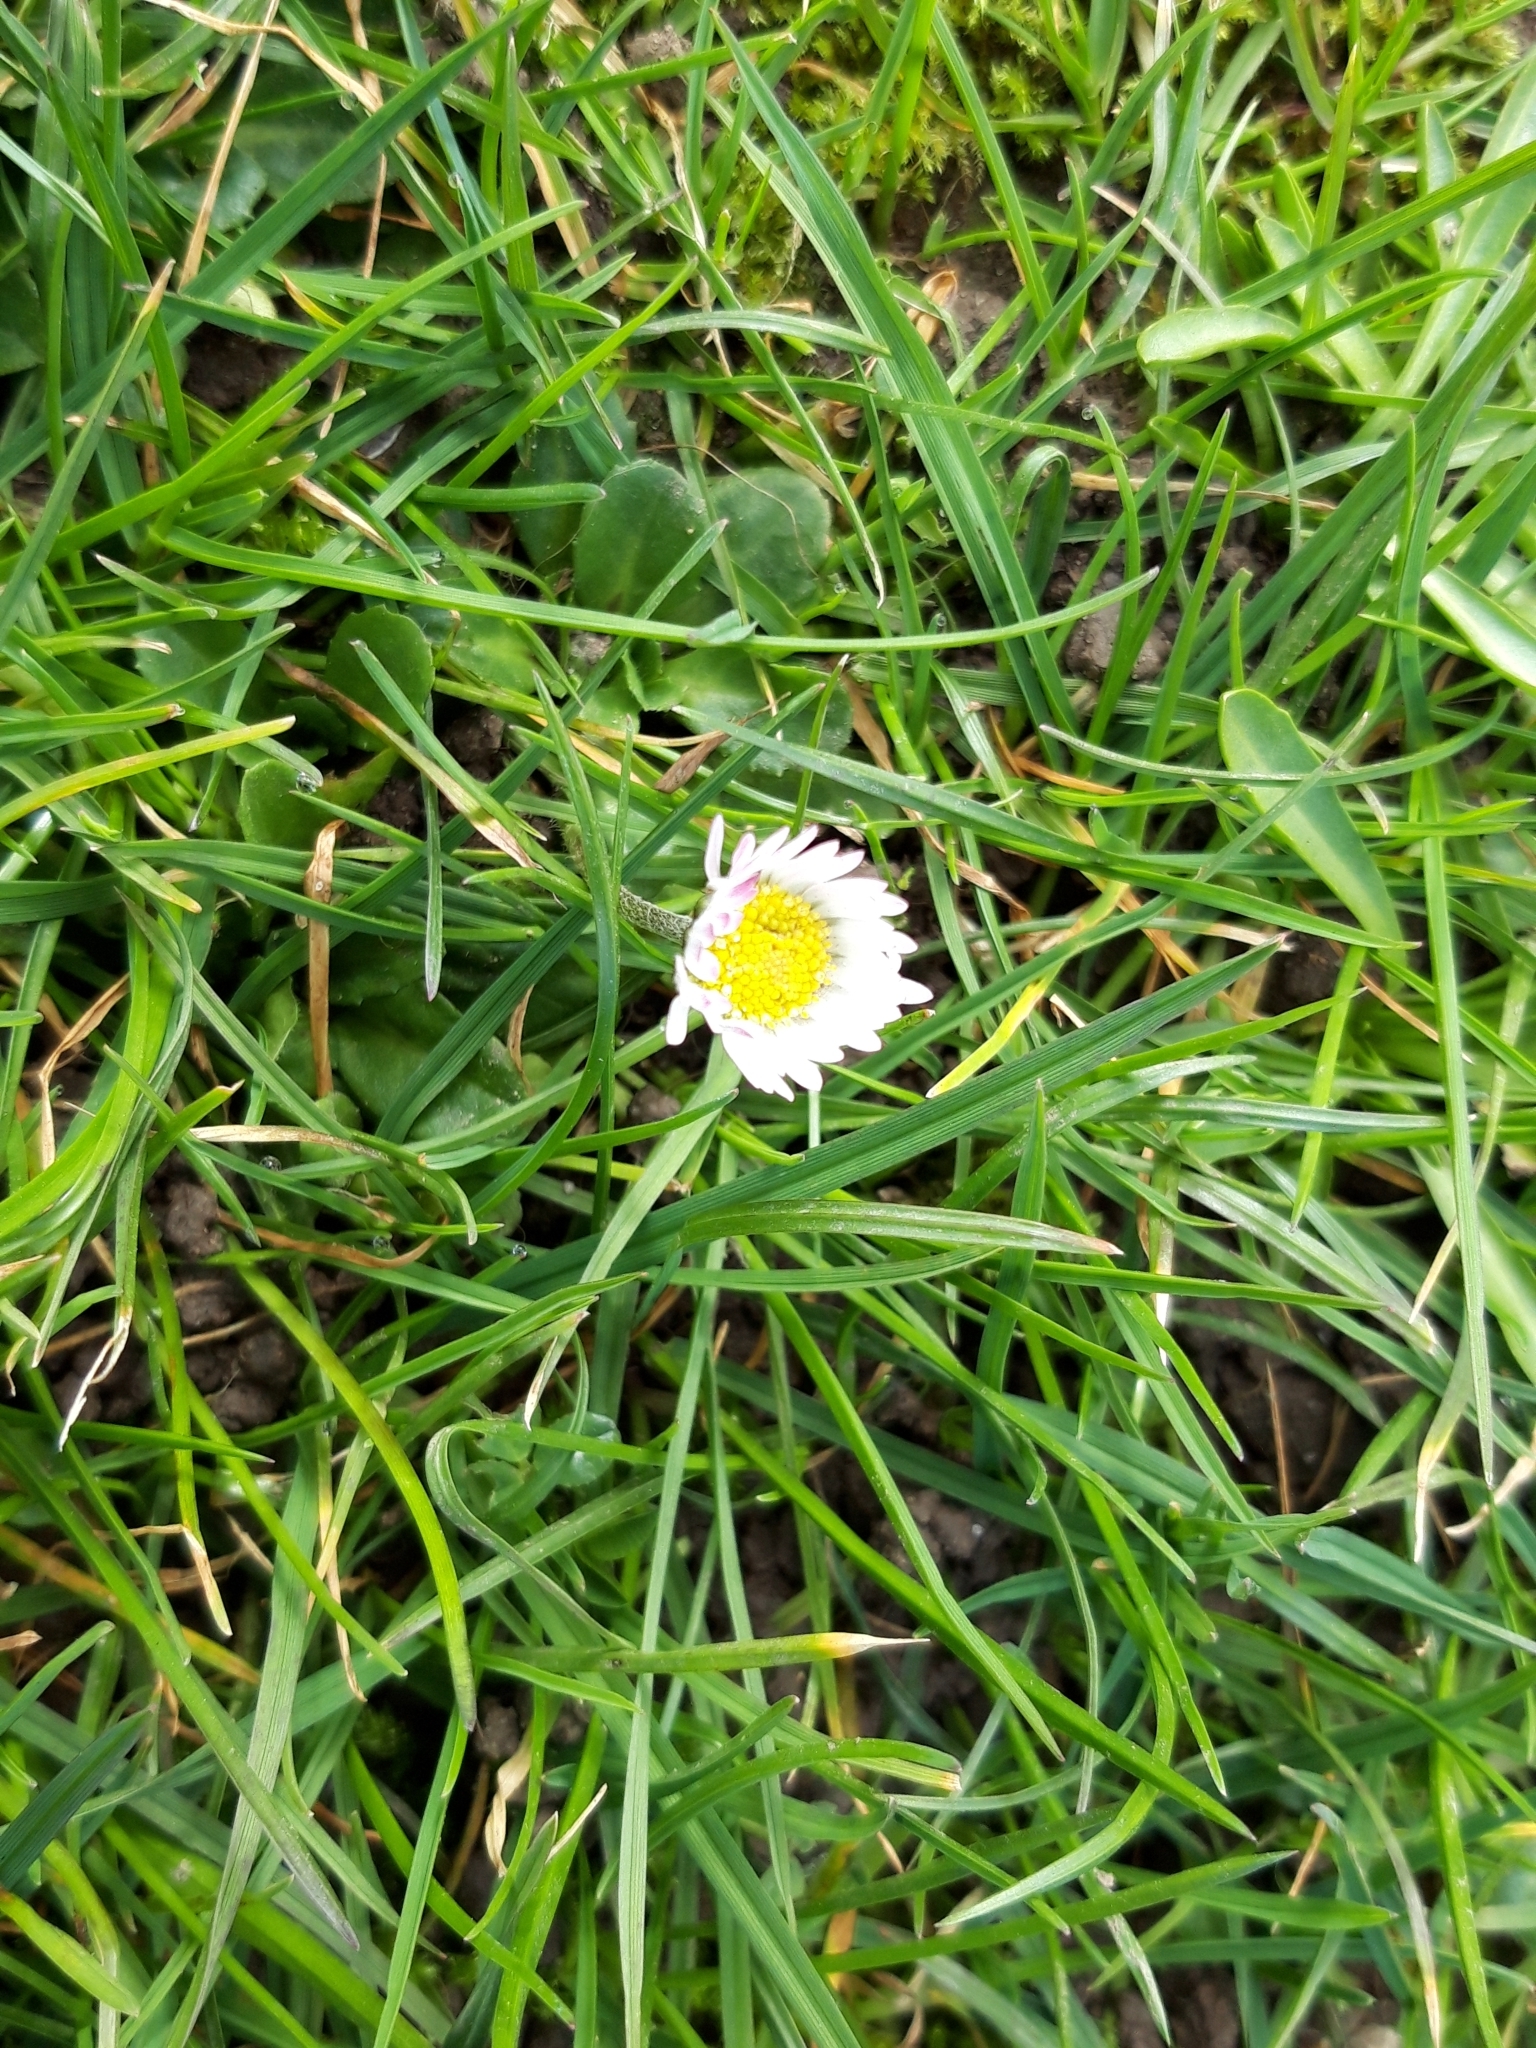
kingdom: Plantae
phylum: Tracheophyta
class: Magnoliopsida
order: Asterales
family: Asteraceae
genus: Bellis
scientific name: Bellis perennis
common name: Lawndaisy
